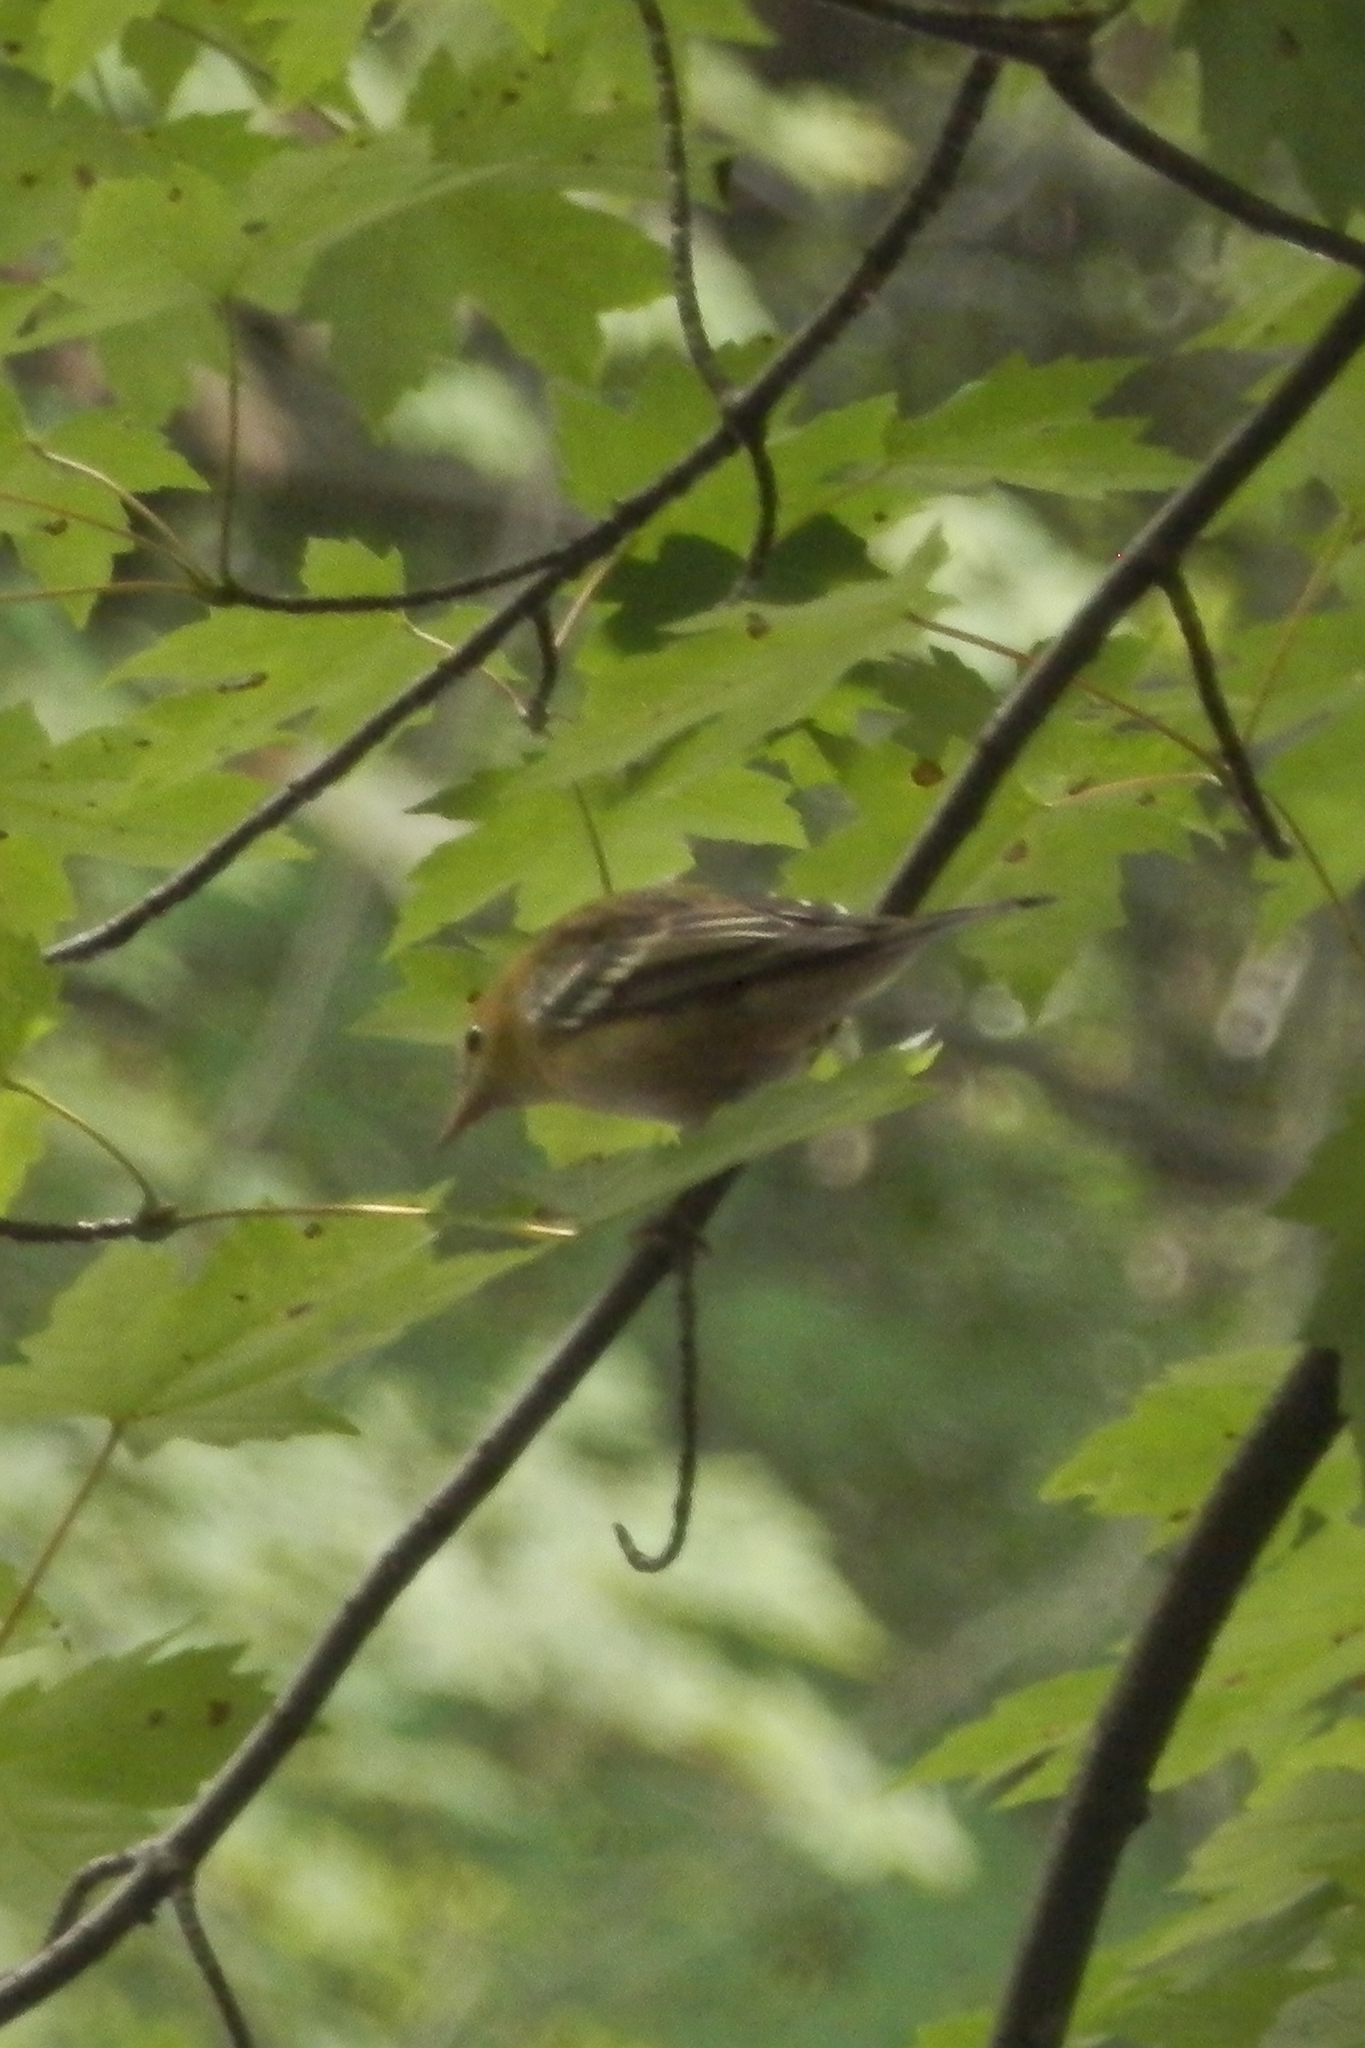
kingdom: Animalia
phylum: Chordata
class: Aves
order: Passeriformes
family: Parulidae
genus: Setophaga
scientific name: Setophaga castanea
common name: Bay-breasted warbler
